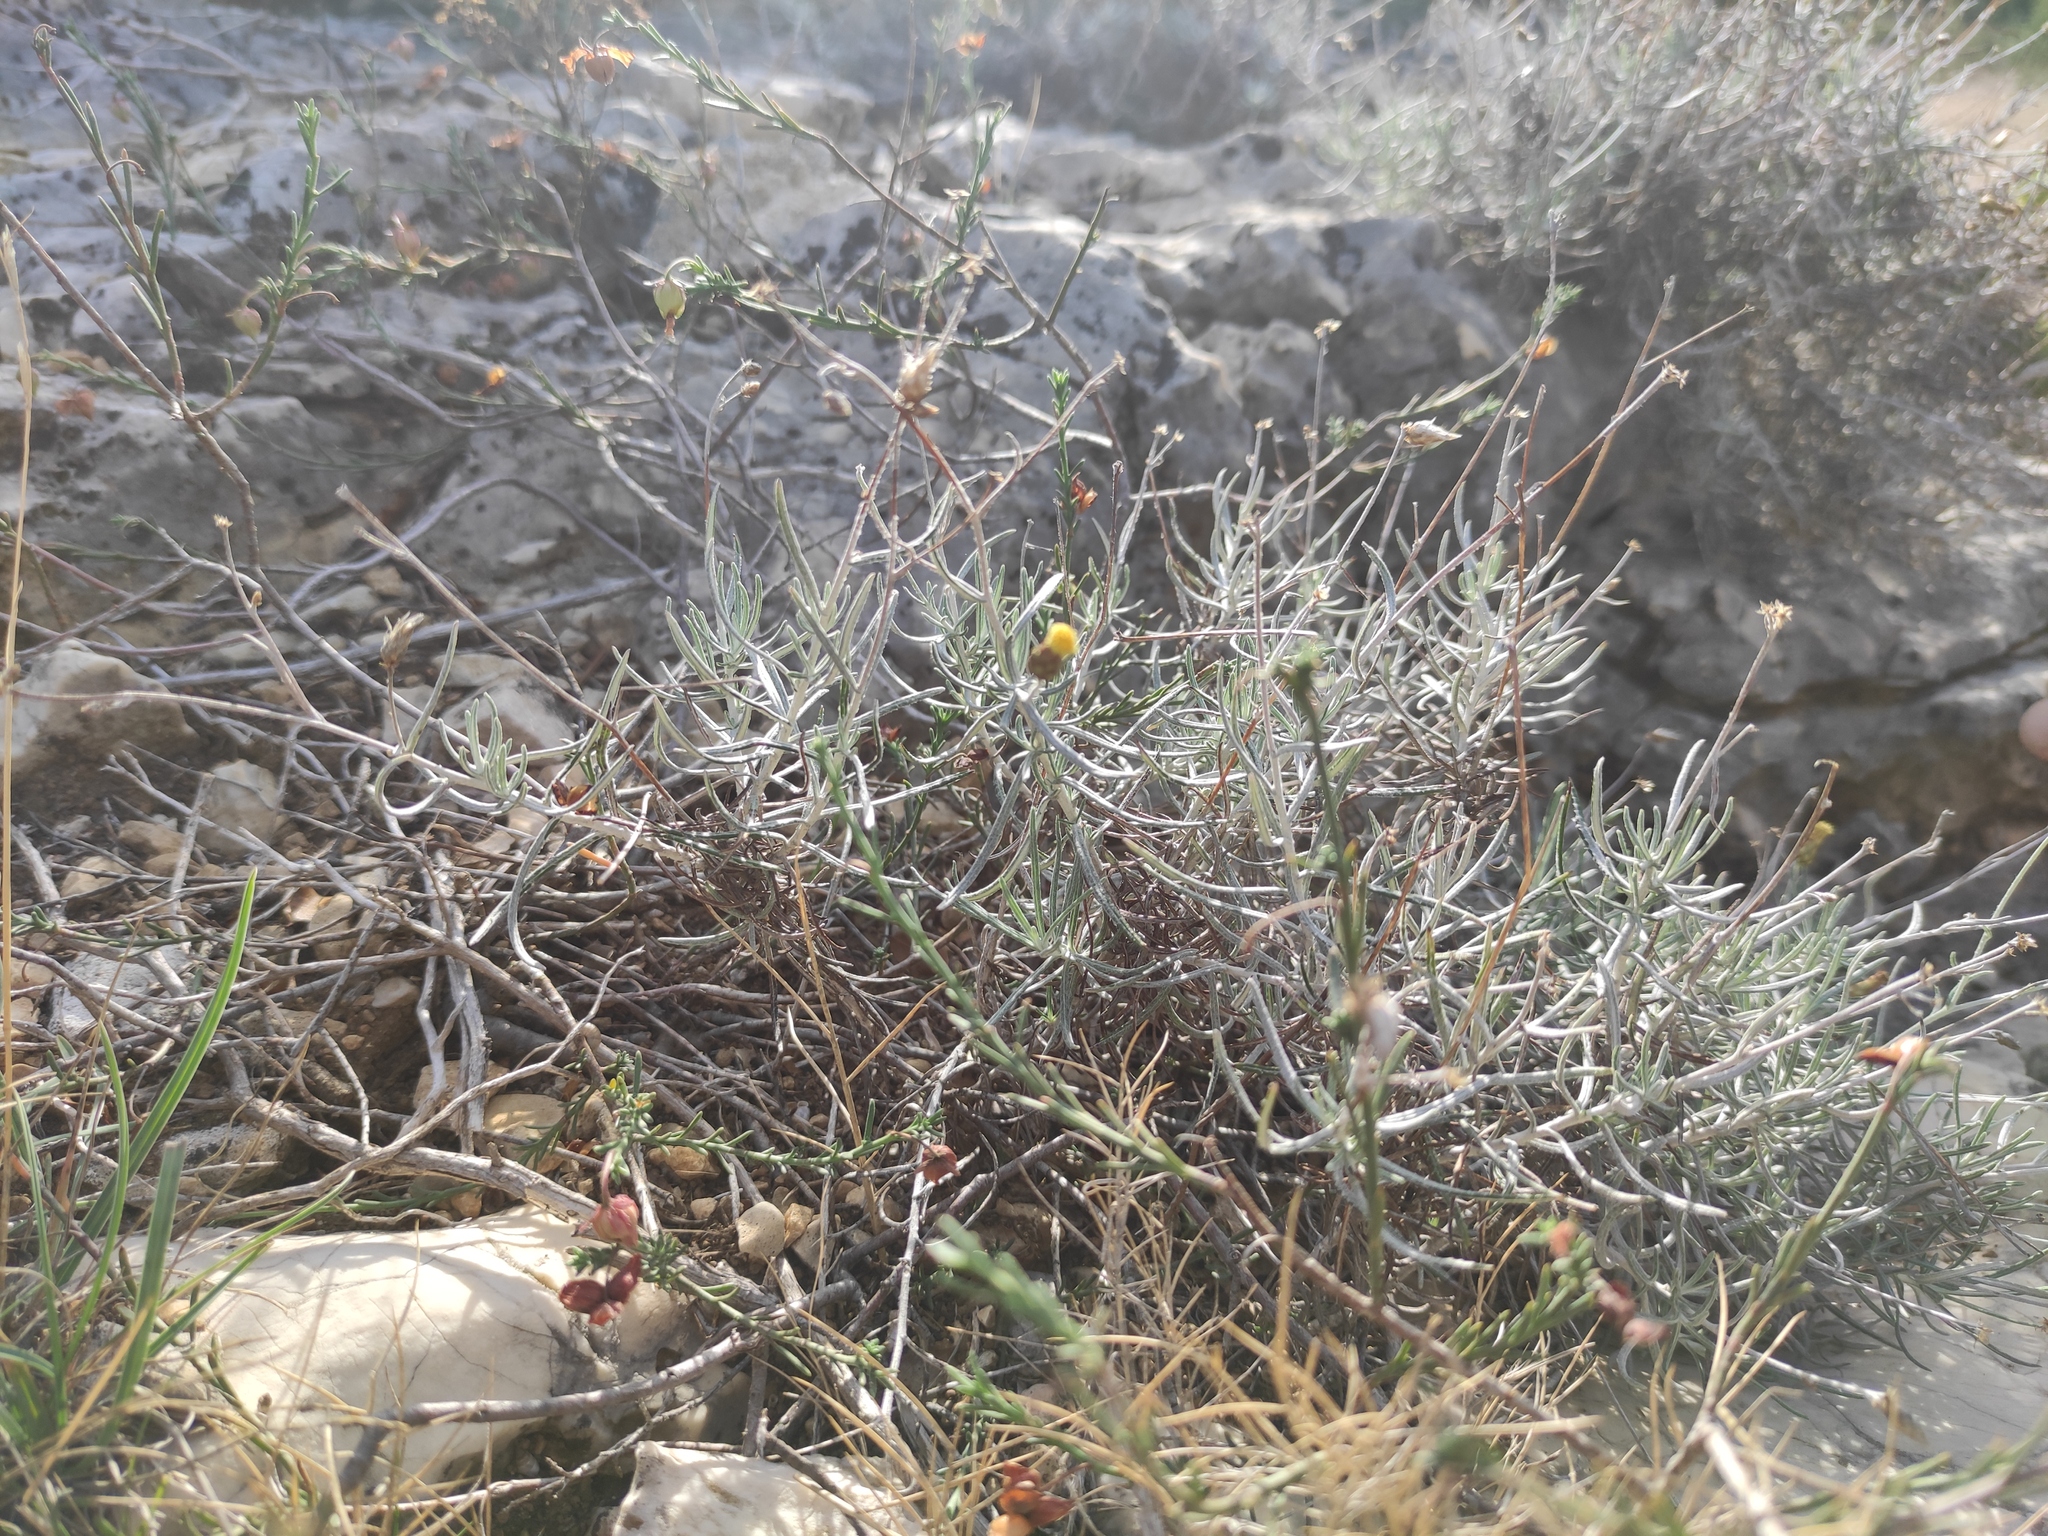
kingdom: Plantae
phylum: Tracheophyta
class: Magnoliopsida
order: Asterales
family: Asteraceae
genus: Phagnalon
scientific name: Phagnalon sordidum
